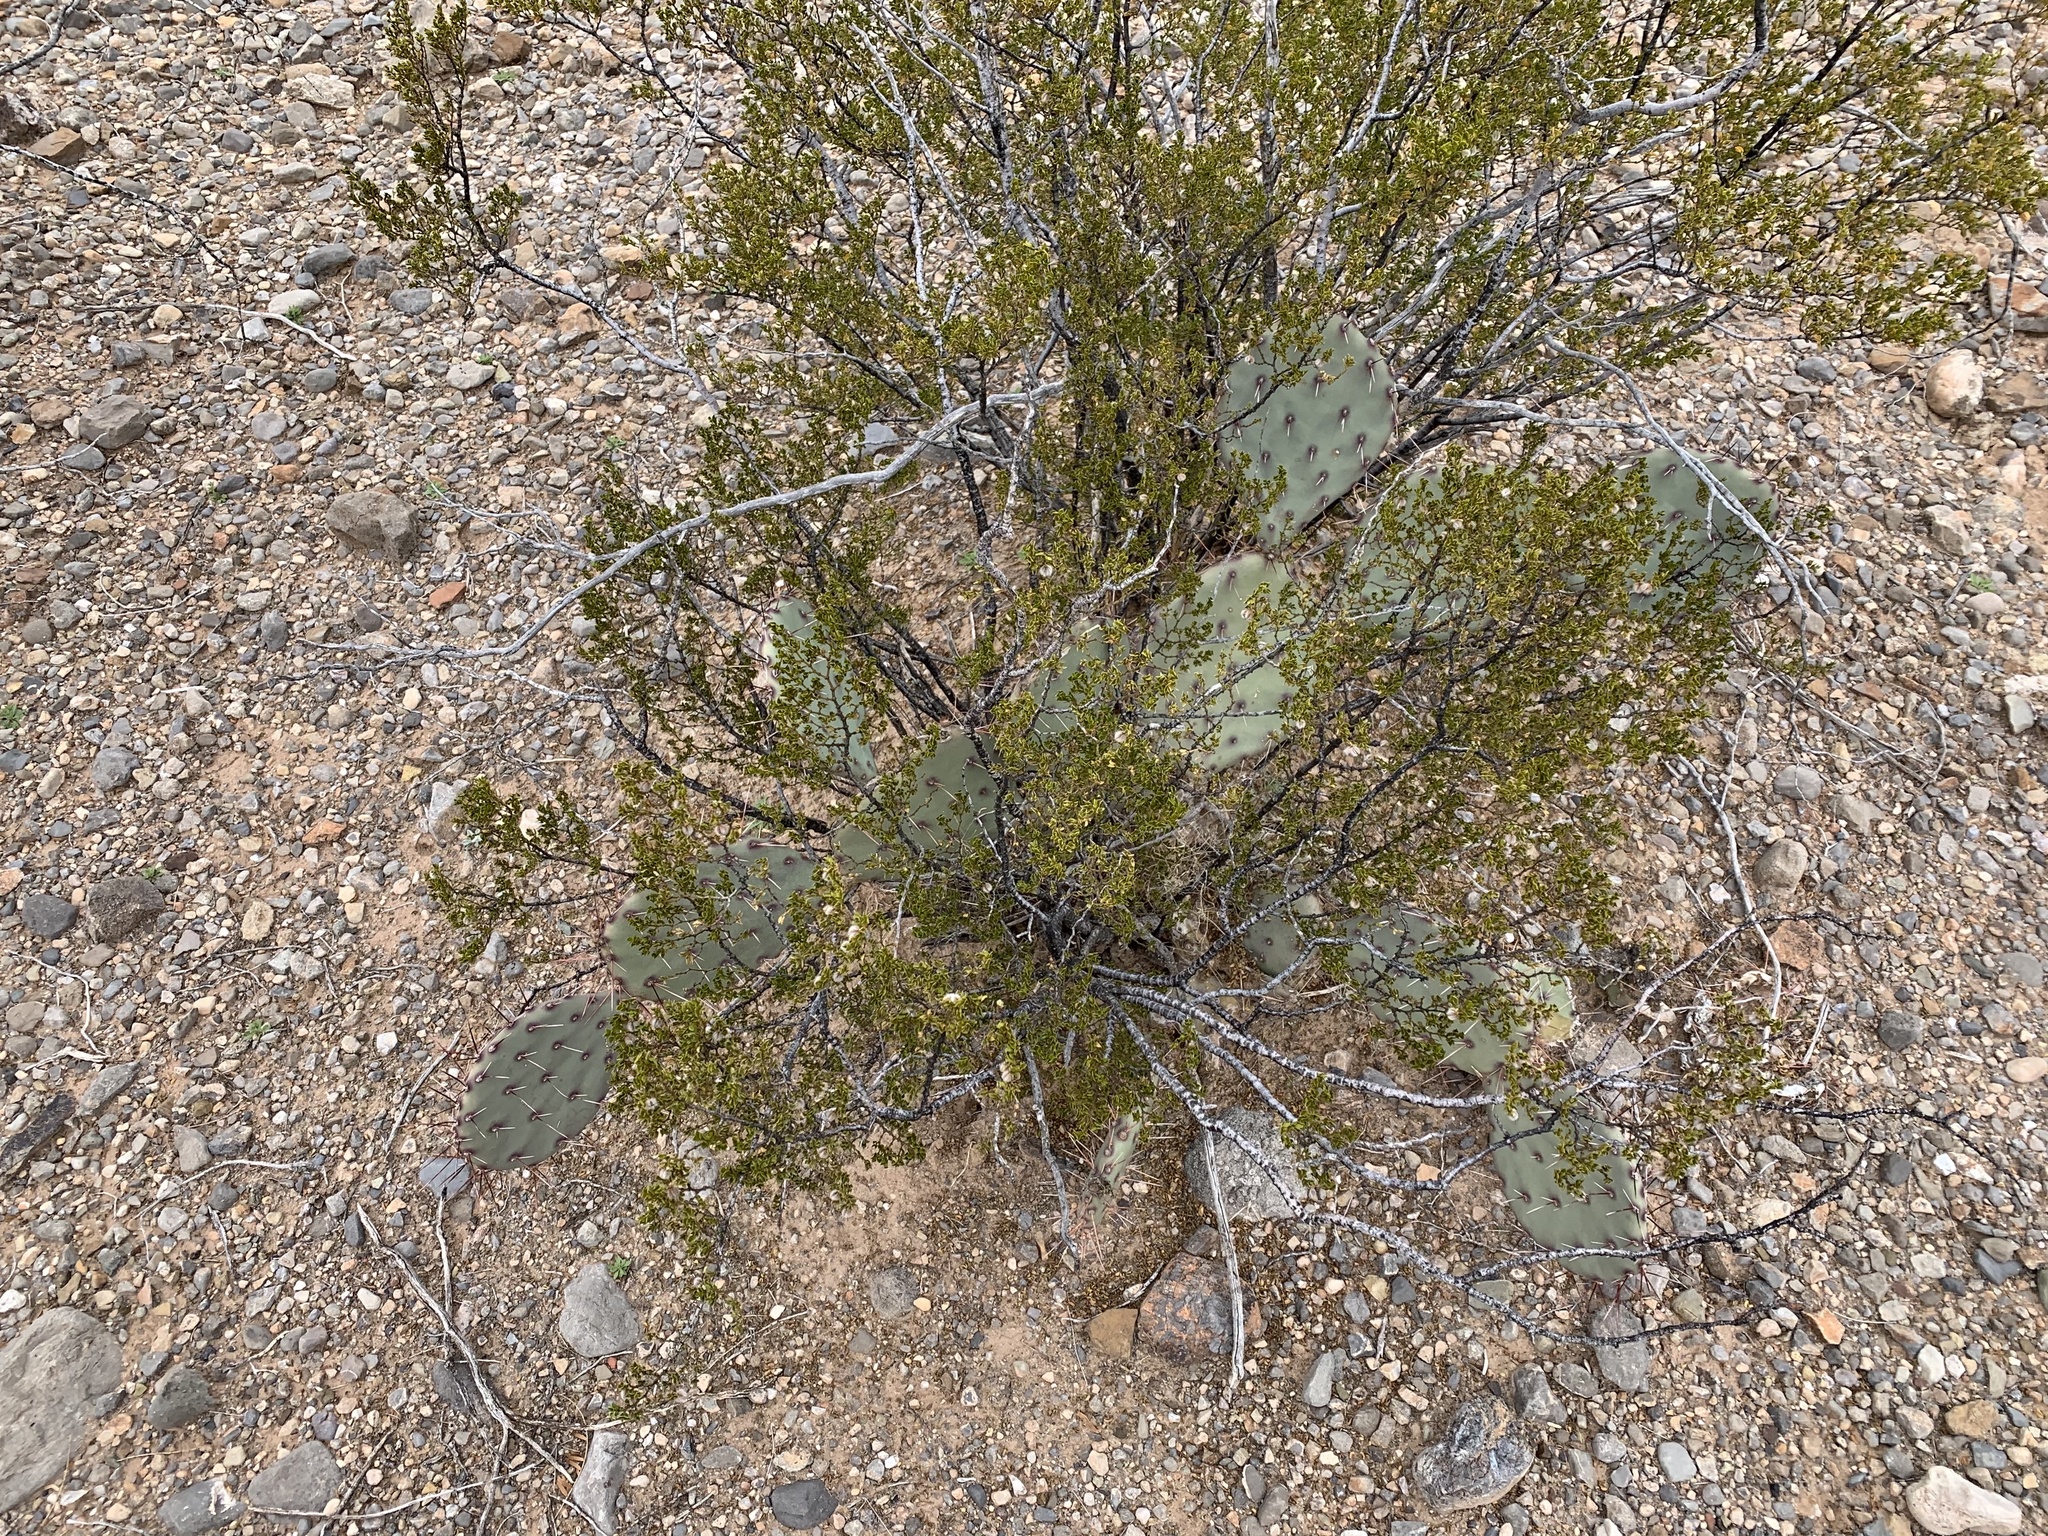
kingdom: Plantae
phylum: Tracheophyta
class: Magnoliopsida
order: Zygophyllales
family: Zygophyllaceae
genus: Larrea
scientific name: Larrea tridentata
